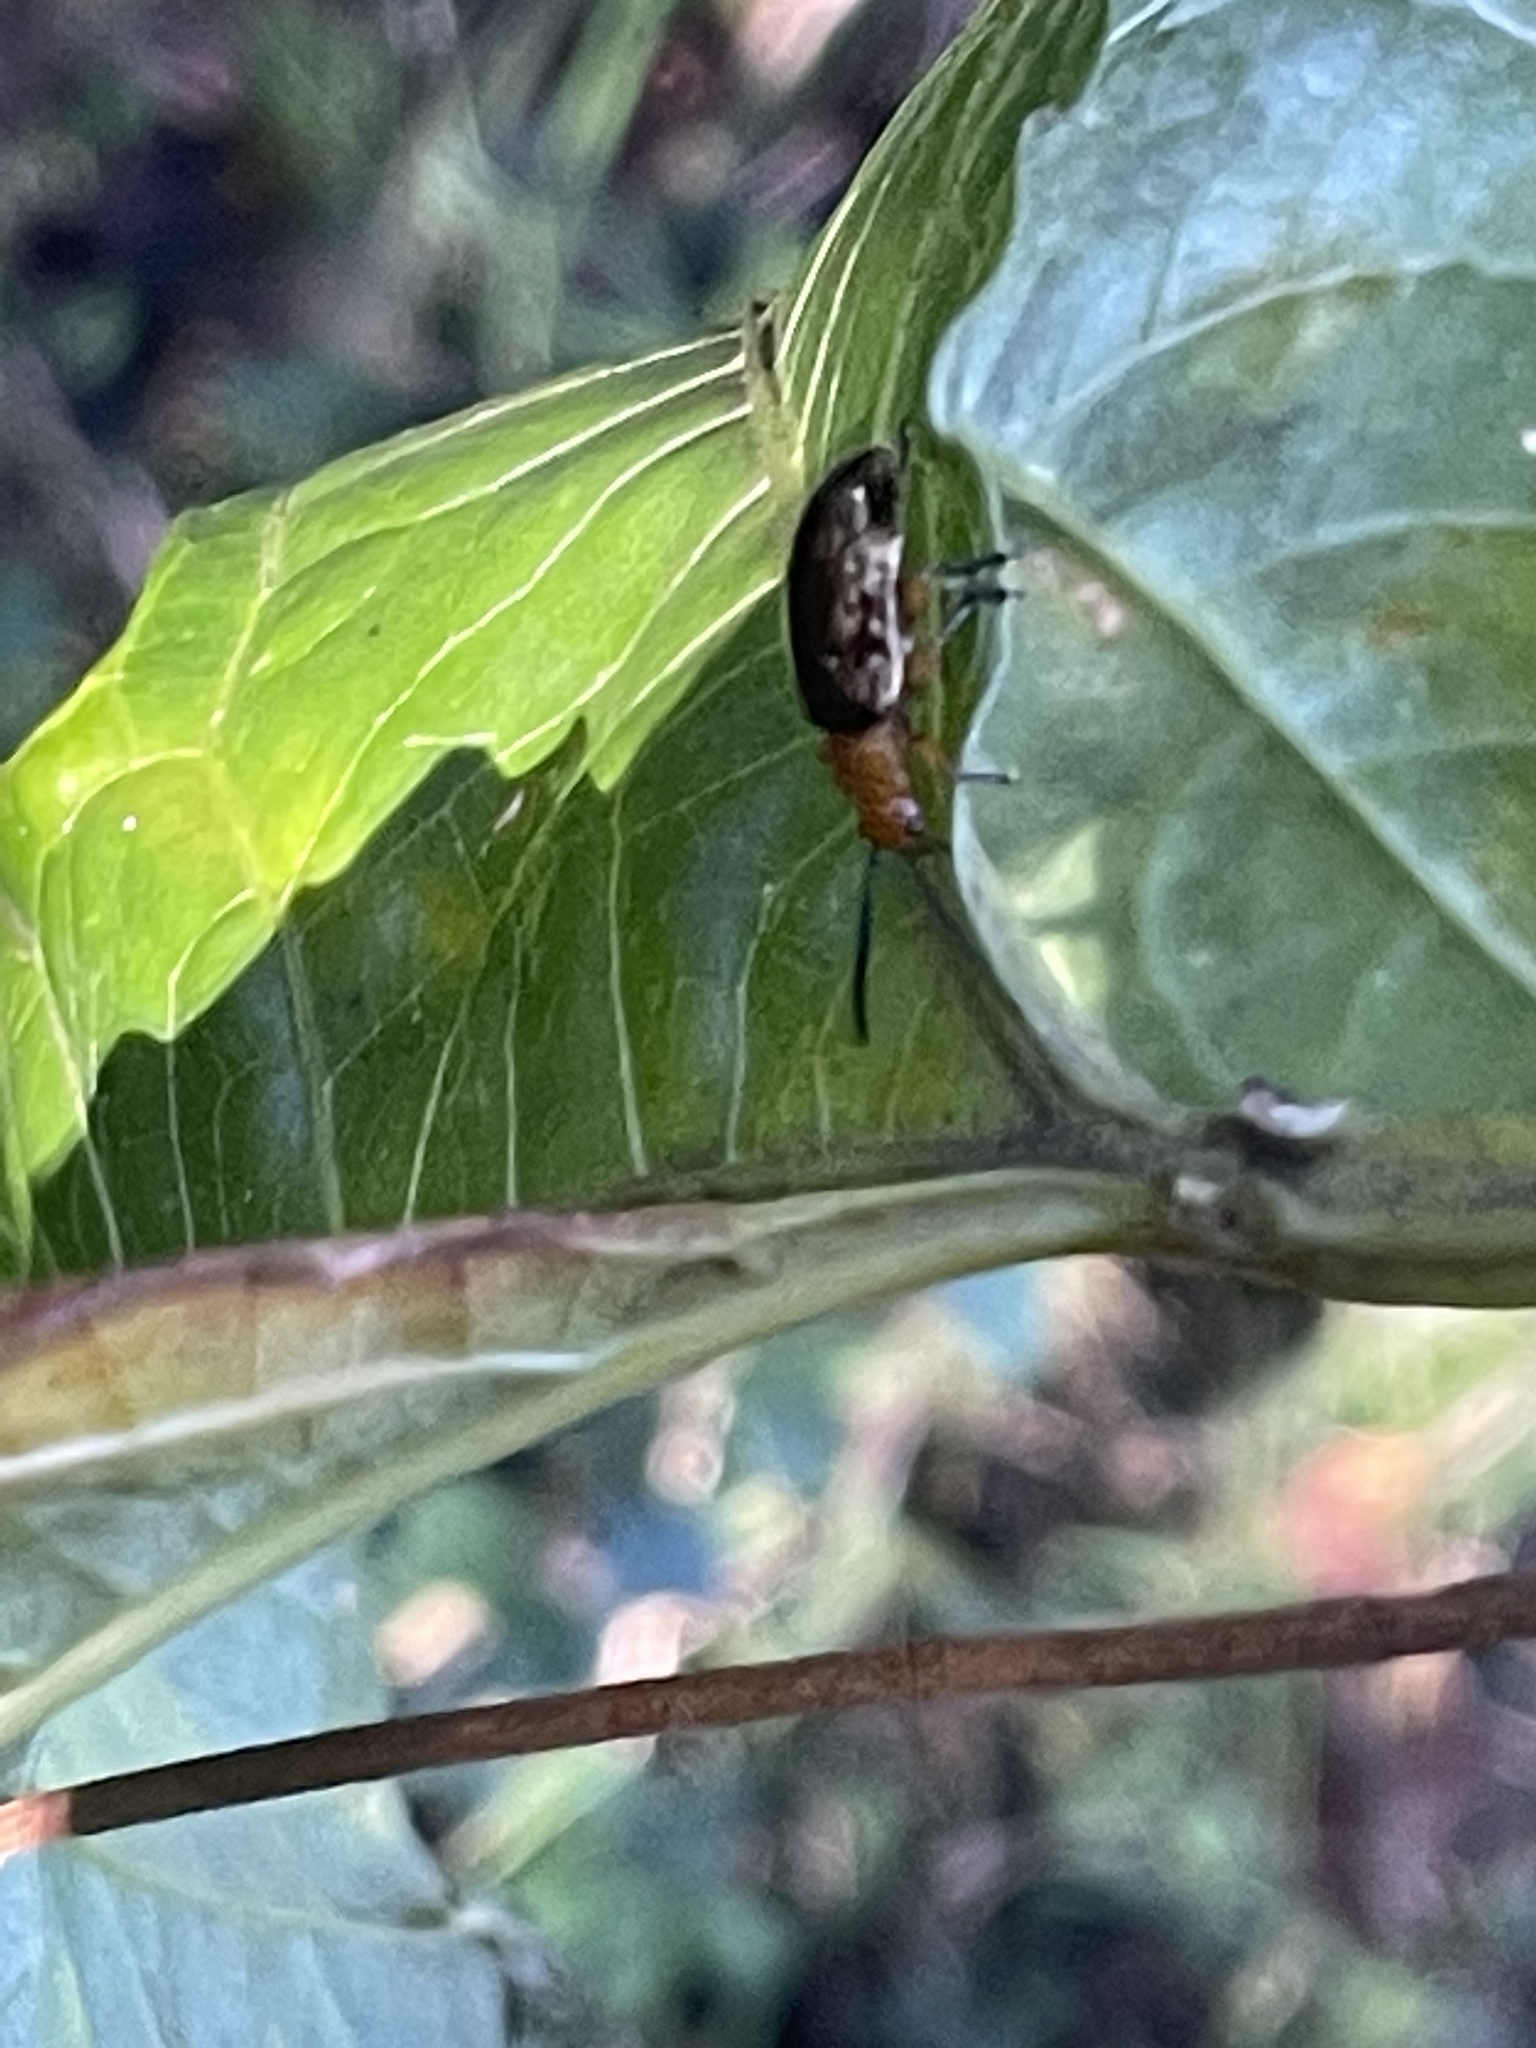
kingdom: Animalia
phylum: Arthropoda
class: Insecta
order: Coleoptera
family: Chrysomelidae
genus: Lamprolina
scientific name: Lamprolina
